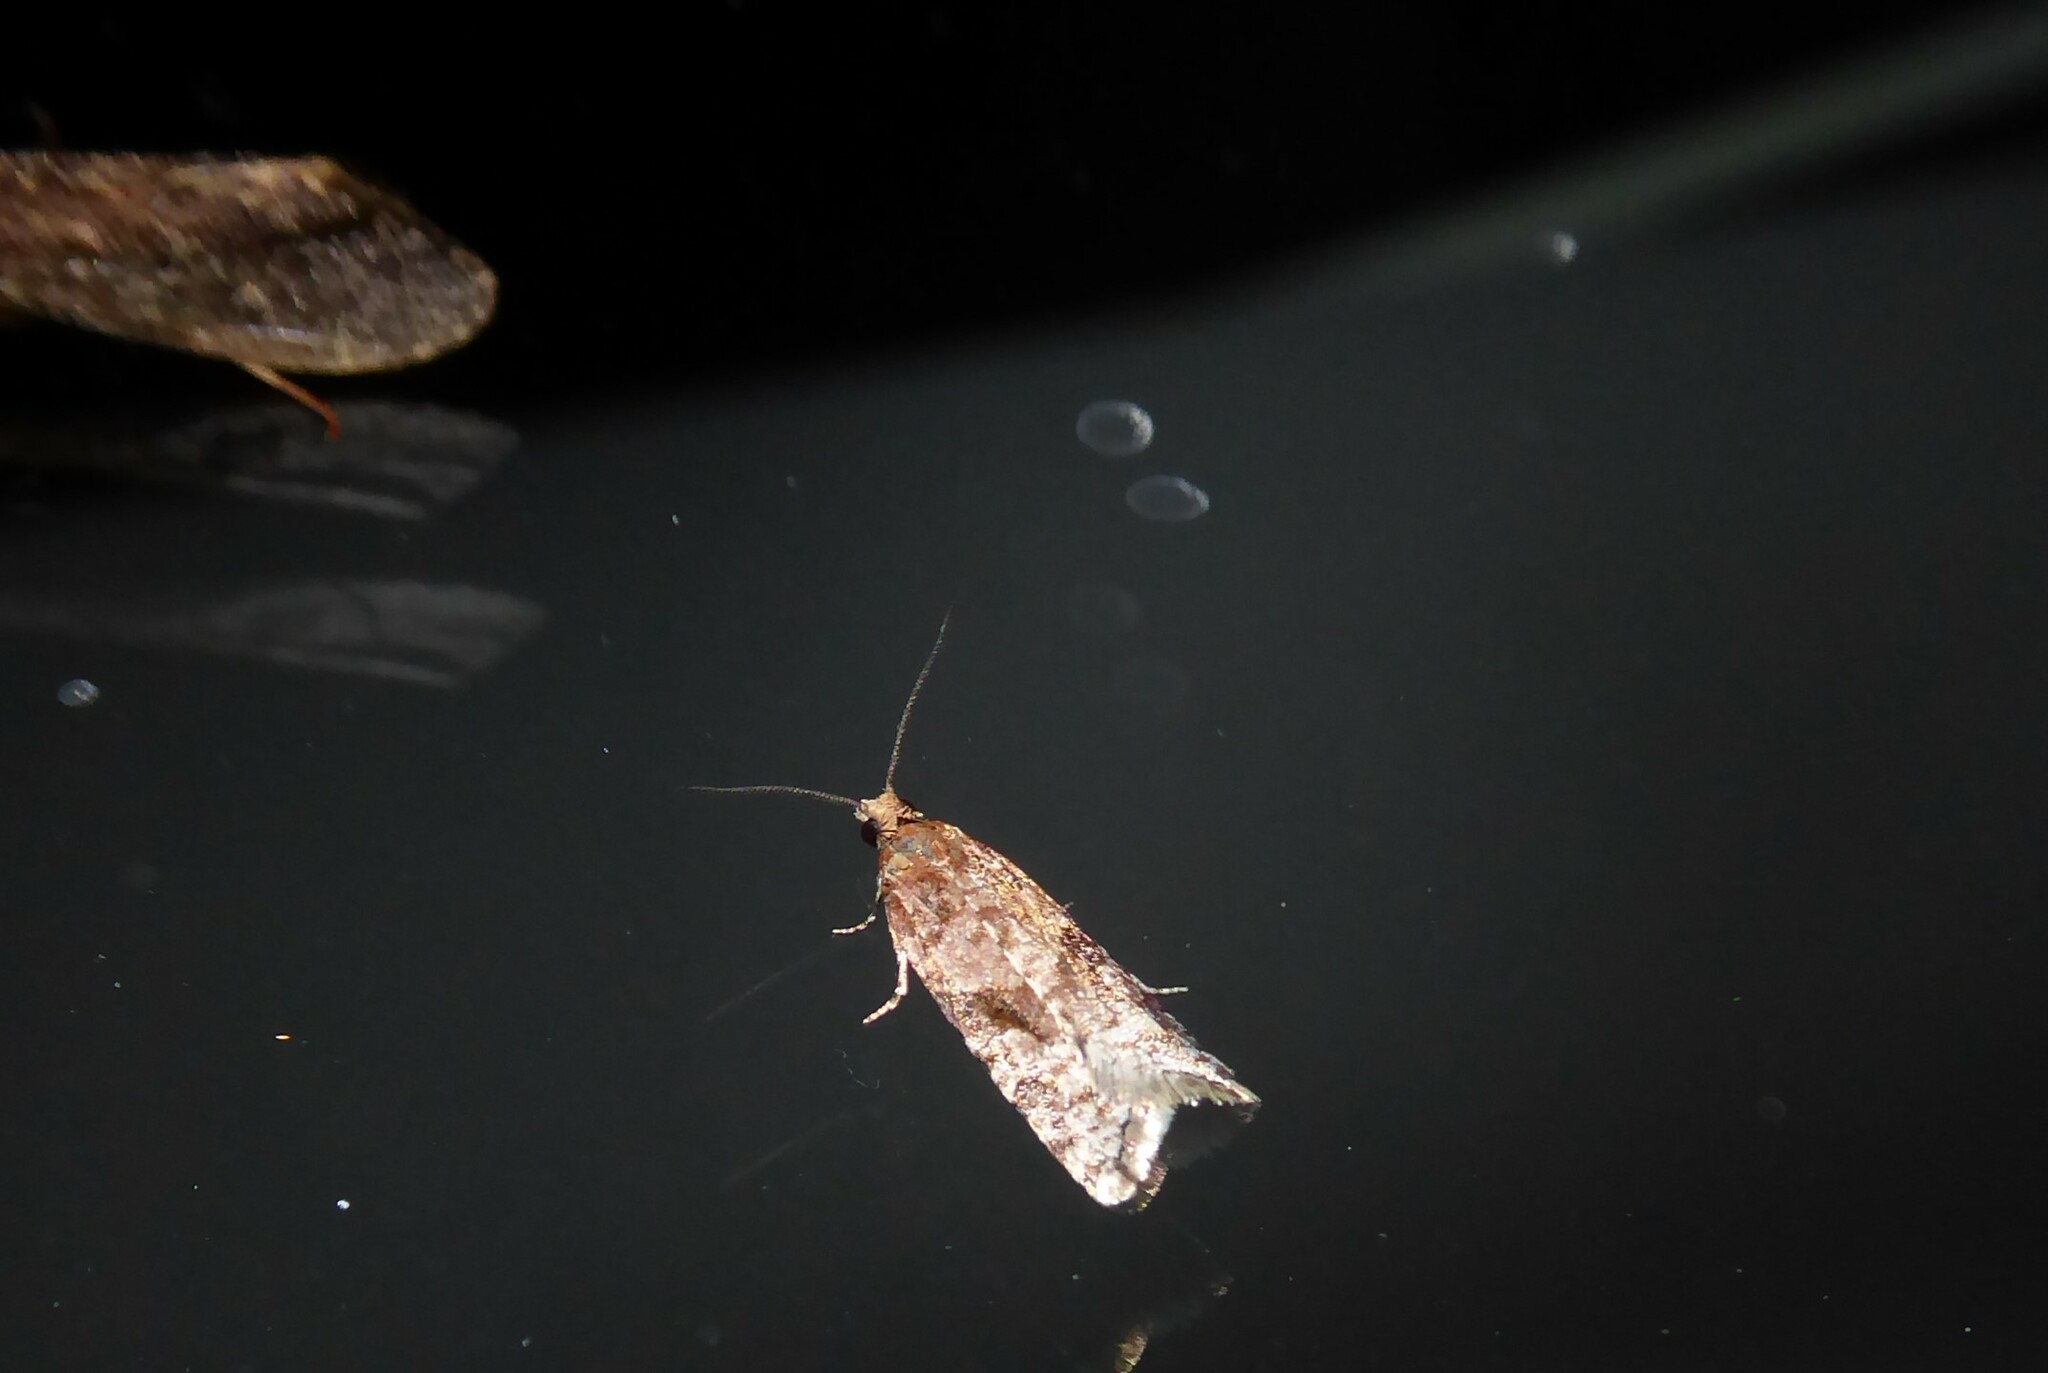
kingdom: Animalia
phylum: Arthropoda
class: Insecta
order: Lepidoptera
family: Tortricidae
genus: Capua
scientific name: Capua semiferana
